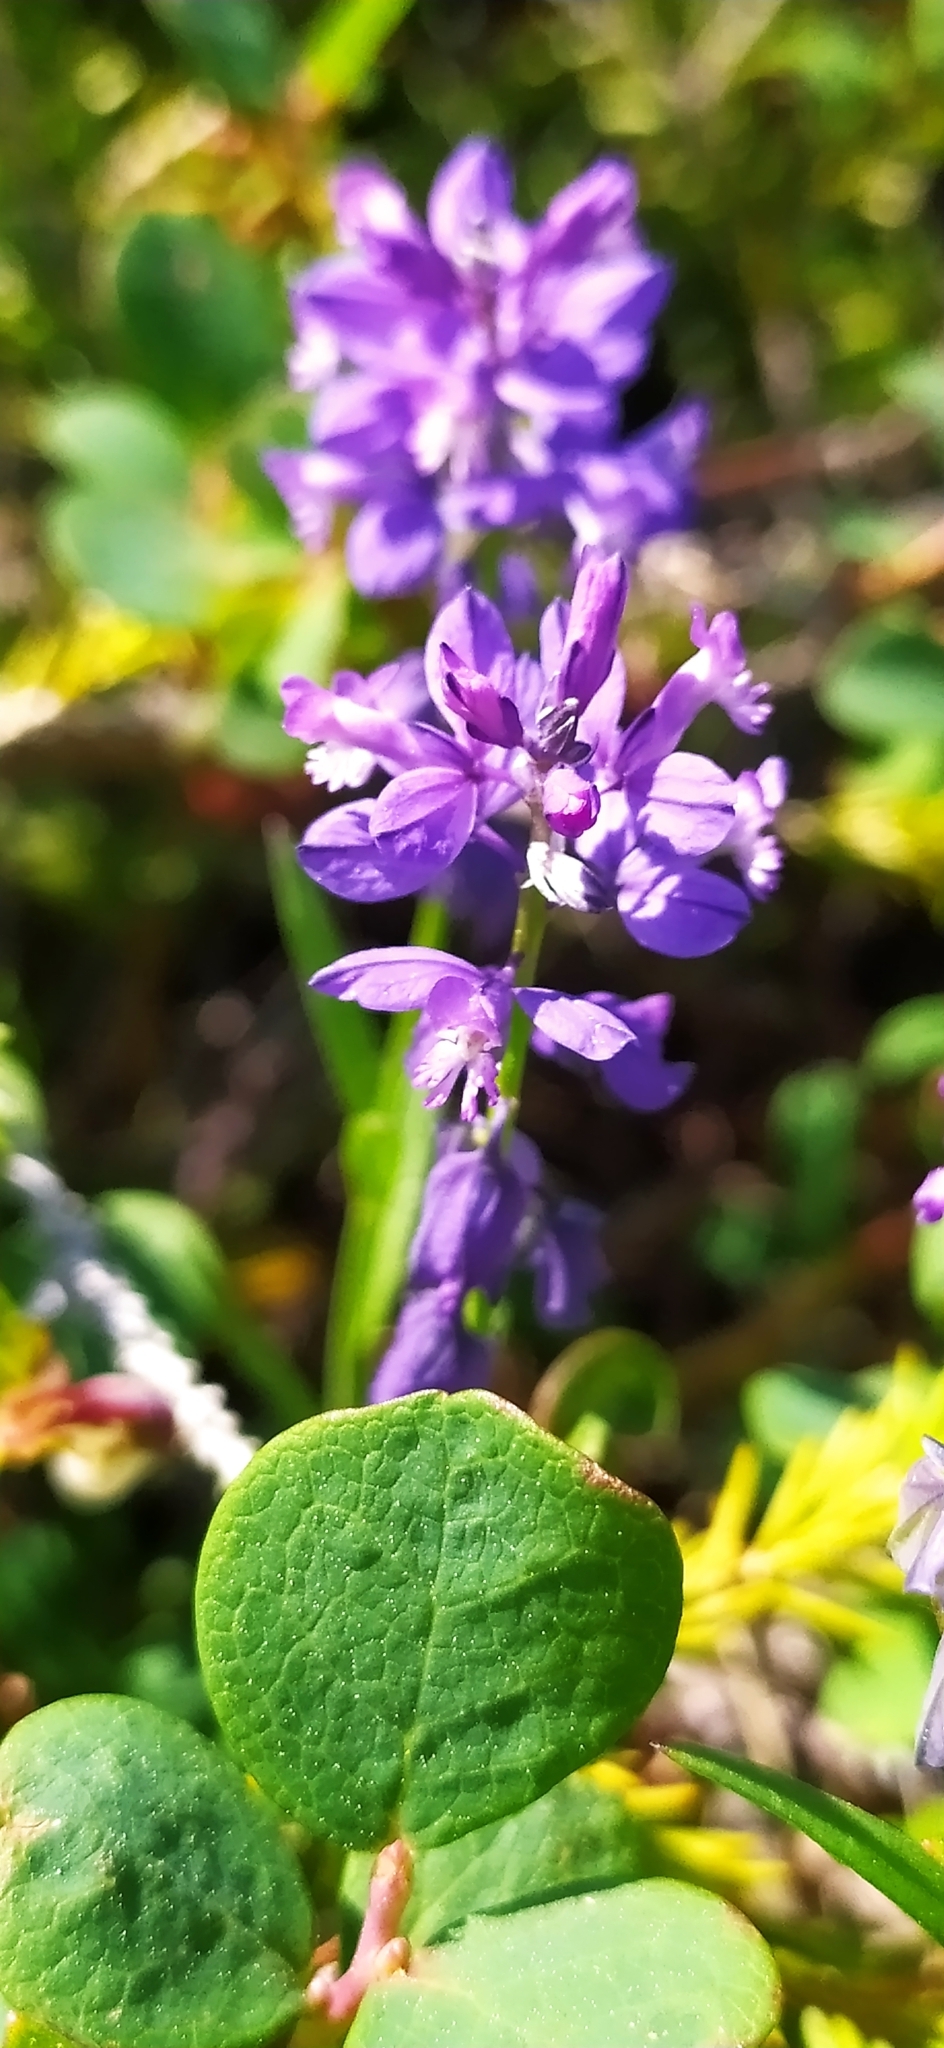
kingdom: Plantae
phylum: Tracheophyta
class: Magnoliopsida
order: Fabales
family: Polygalaceae
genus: Polygala
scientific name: Polygala comosa
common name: Tufted milkwort
